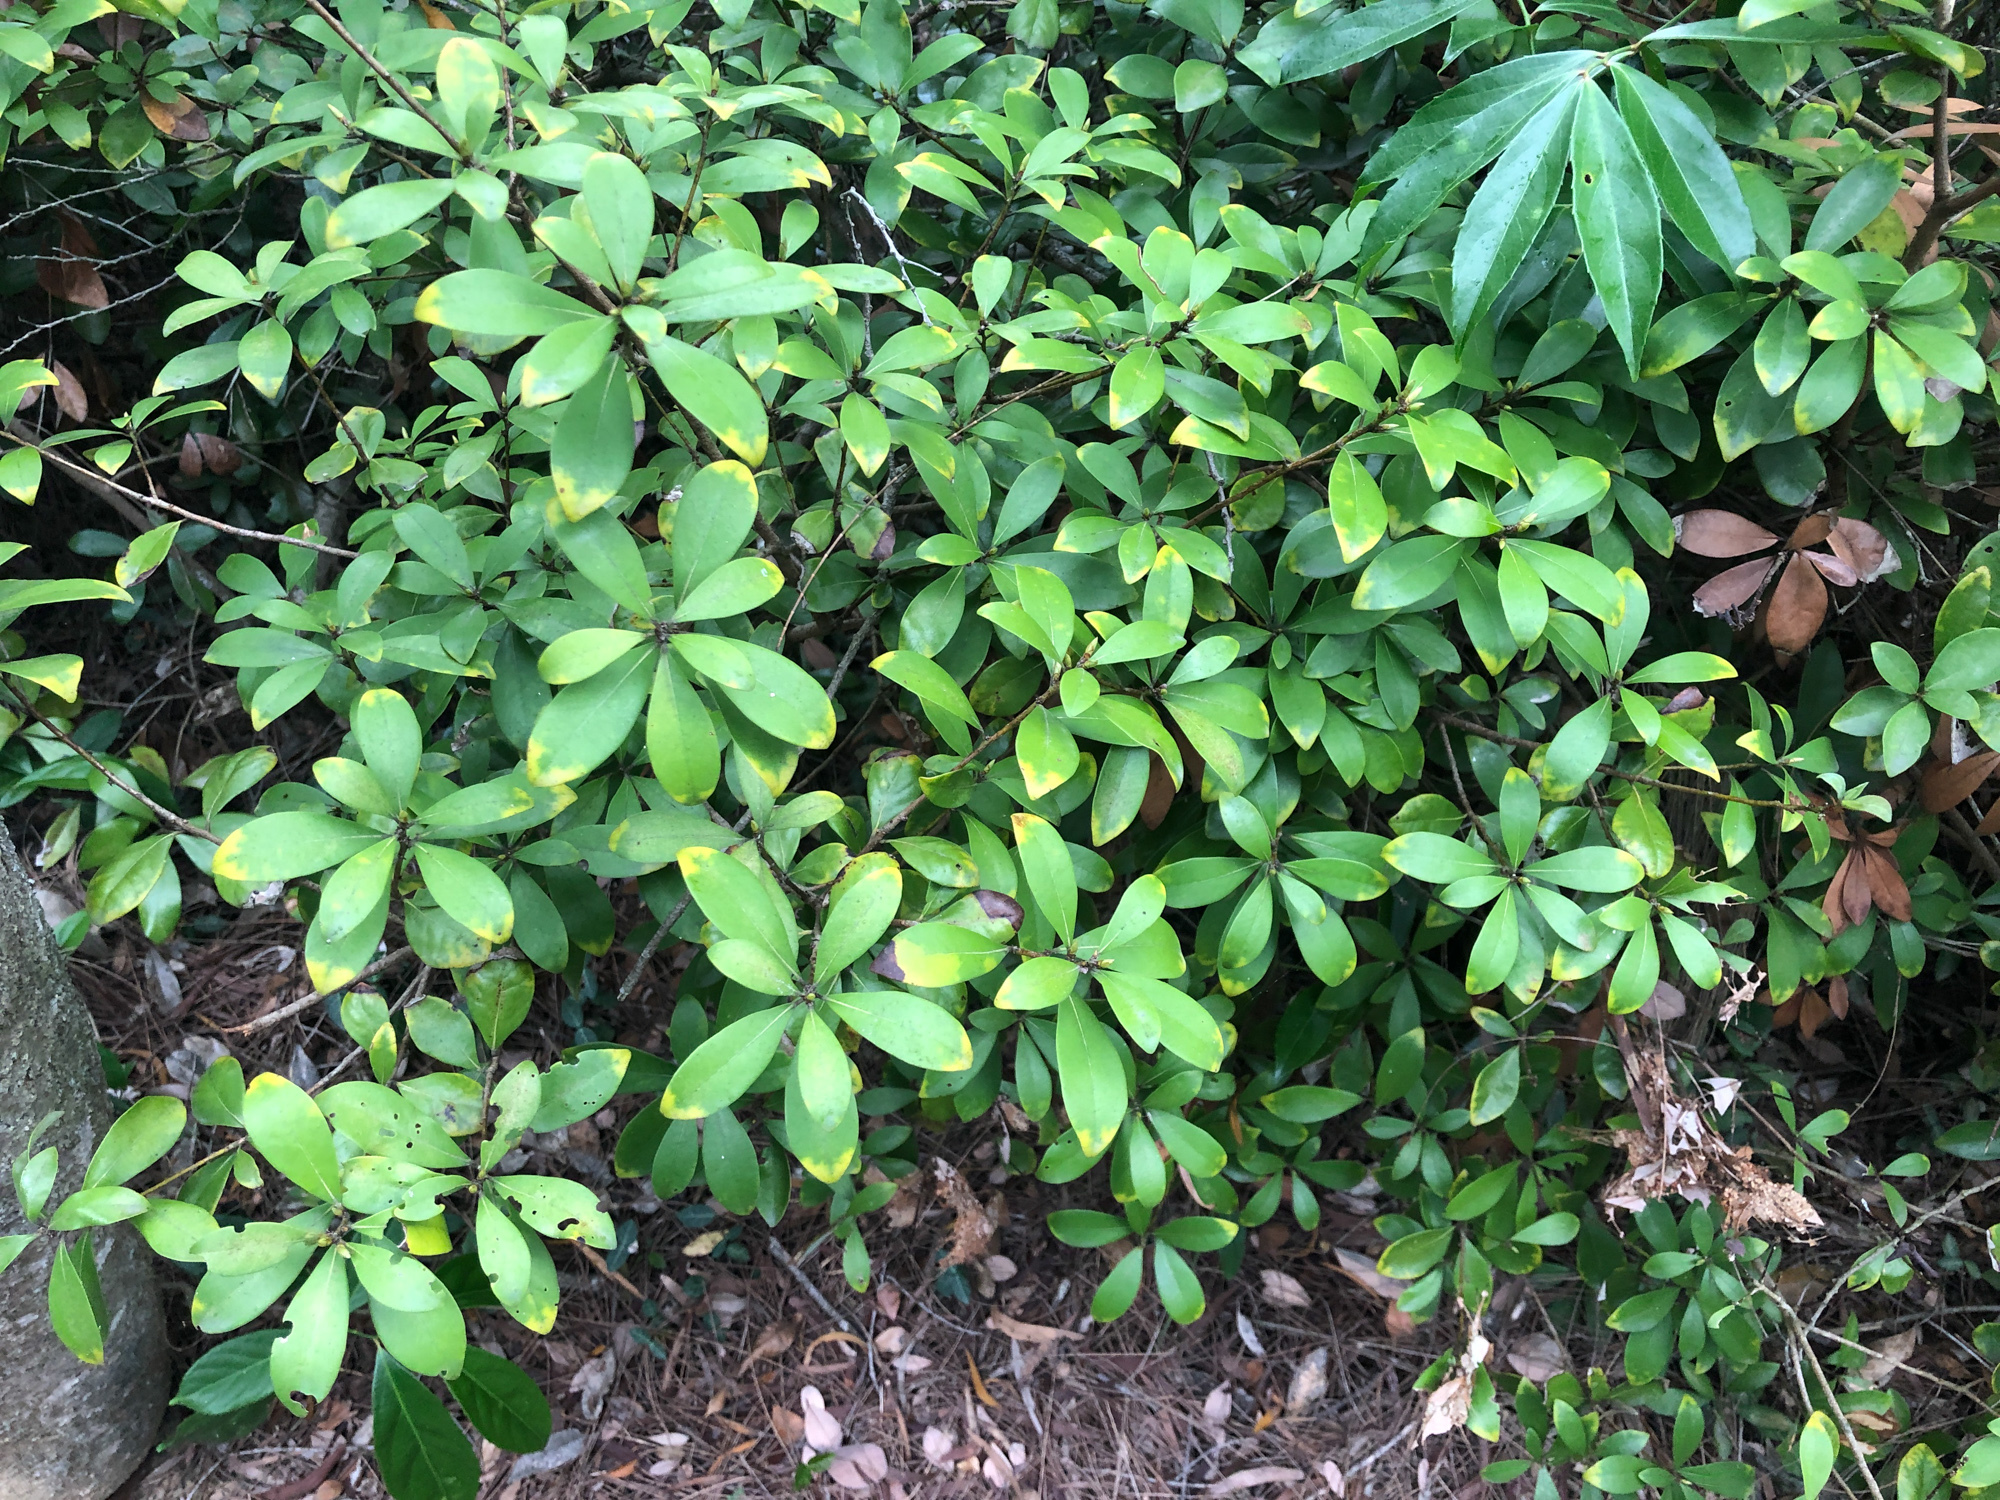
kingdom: Plantae
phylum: Tracheophyta
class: Magnoliopsida
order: Laurales
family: Lauraceae
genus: Litsea
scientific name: Litsea rotundifolia
